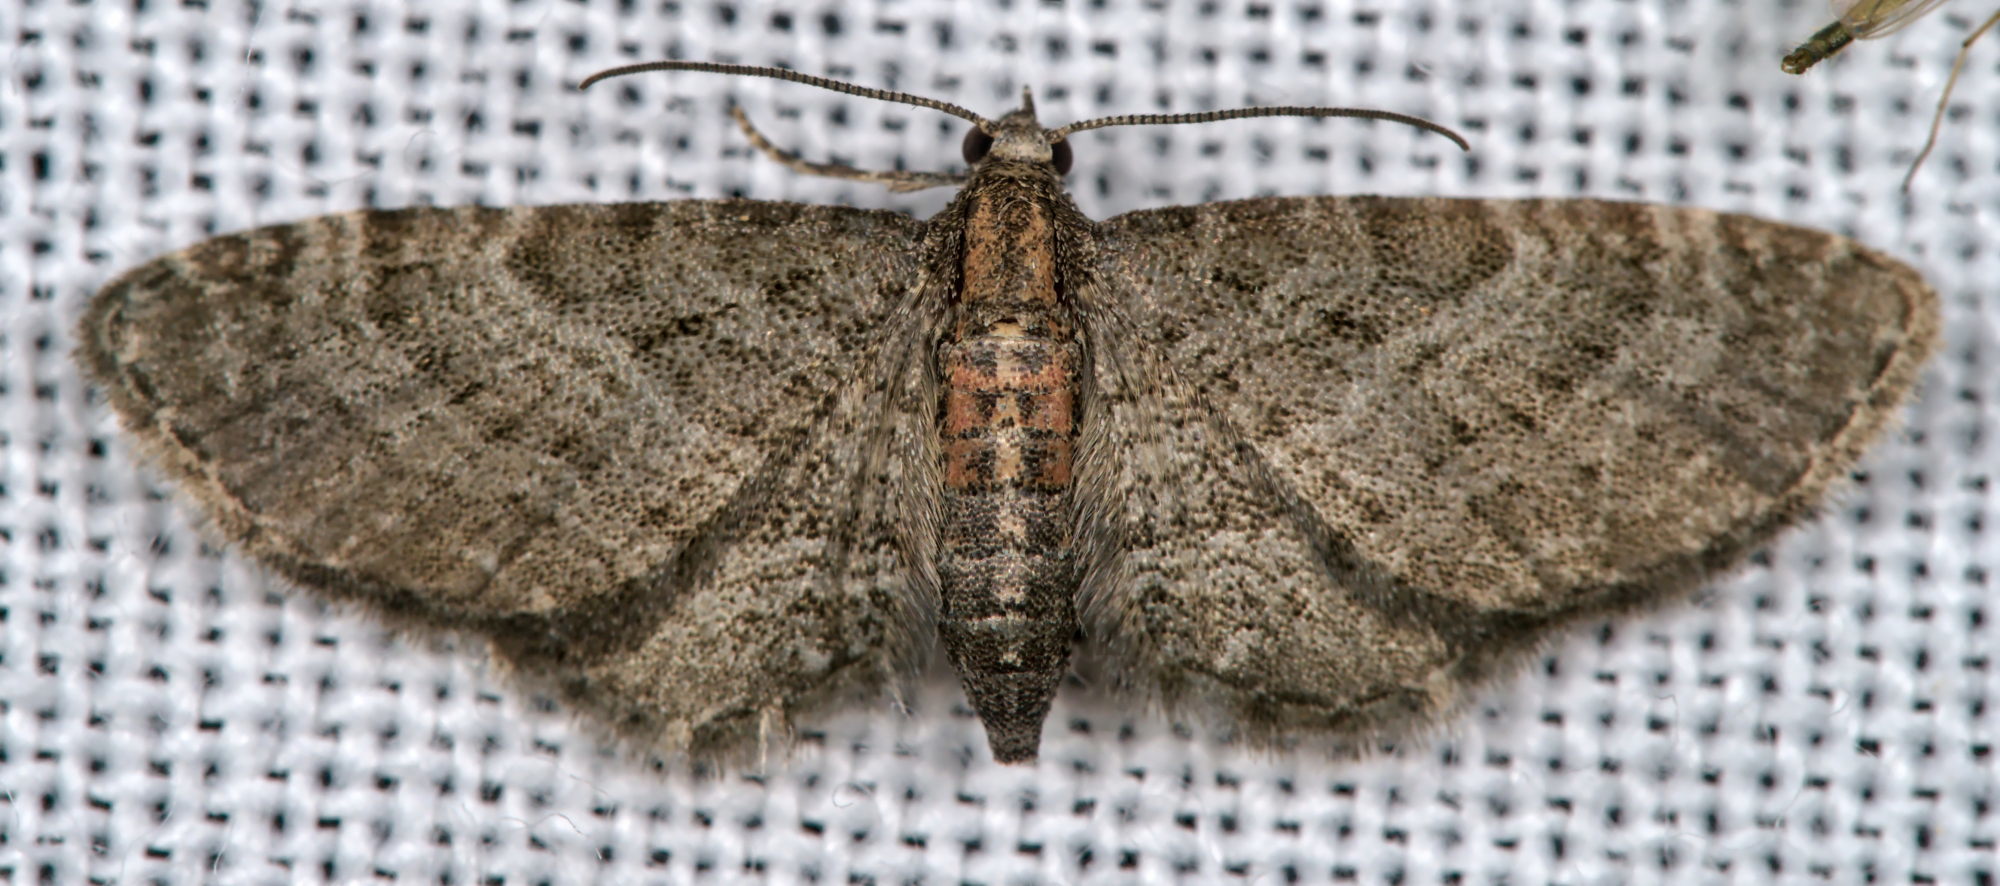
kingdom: Animalia
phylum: Arthropoda
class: Insecta
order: Lepidoptera
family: Geometridae
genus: Eupithecia
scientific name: Eupithecia haworthiata
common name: Haworth's pug
